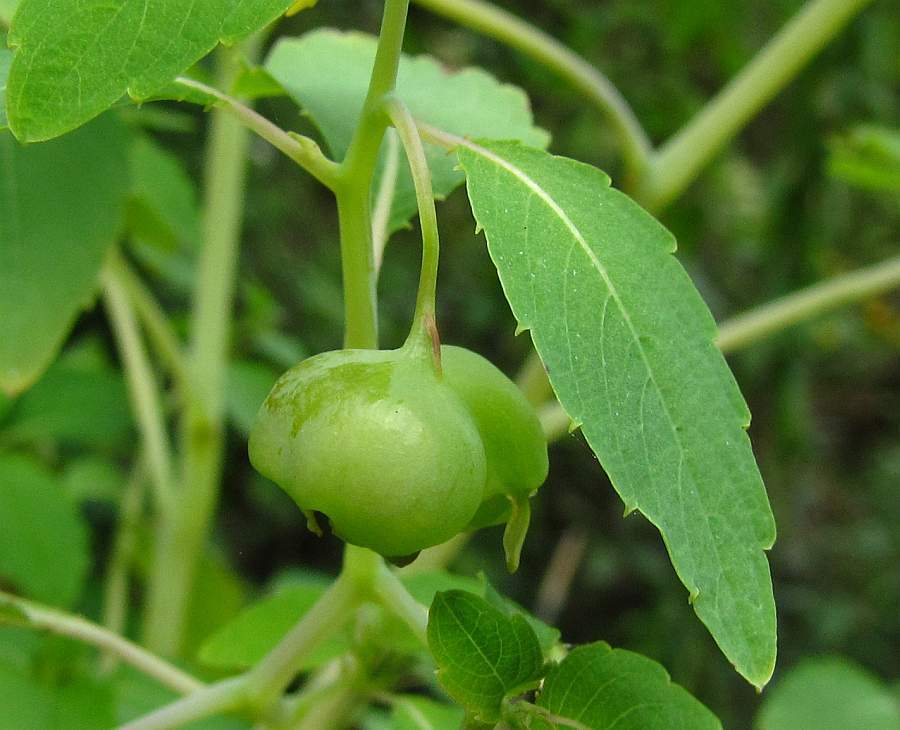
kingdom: Animalia
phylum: Arthropoda
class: Insecta
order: Diptera
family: Cecidomyiidae
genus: Schizomyia
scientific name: Schizomyia impatientis
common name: Jewelweed gall midge
